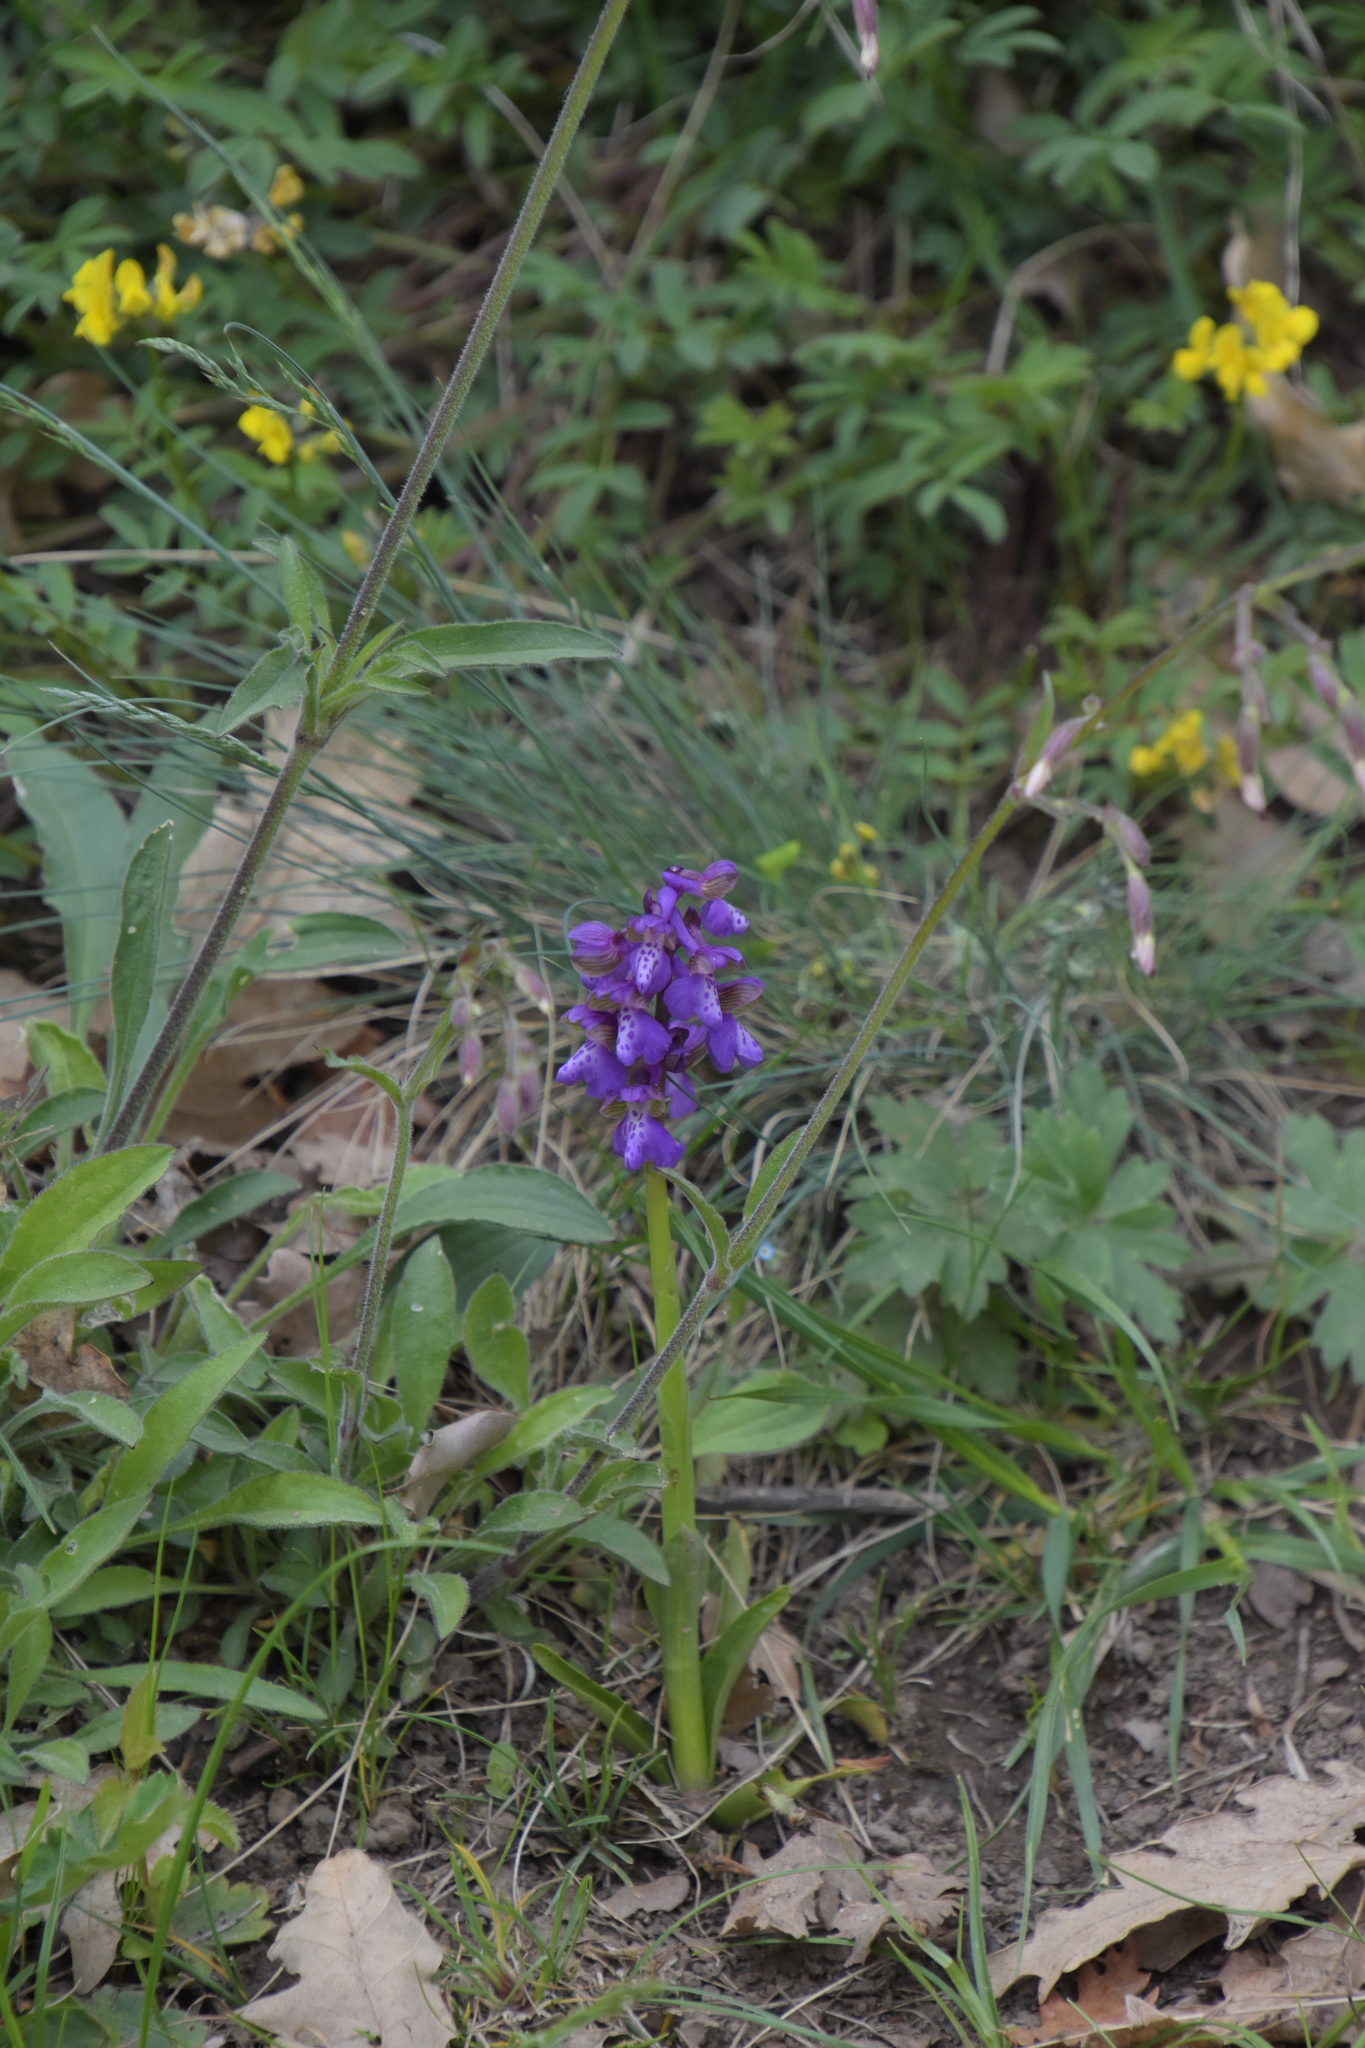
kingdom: Plantae
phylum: Tracheophyta
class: Liliopsida
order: Asparagales
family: Orchidaceae
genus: Anacamptis
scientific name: Anacamptis morio
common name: Green-winged orchid
